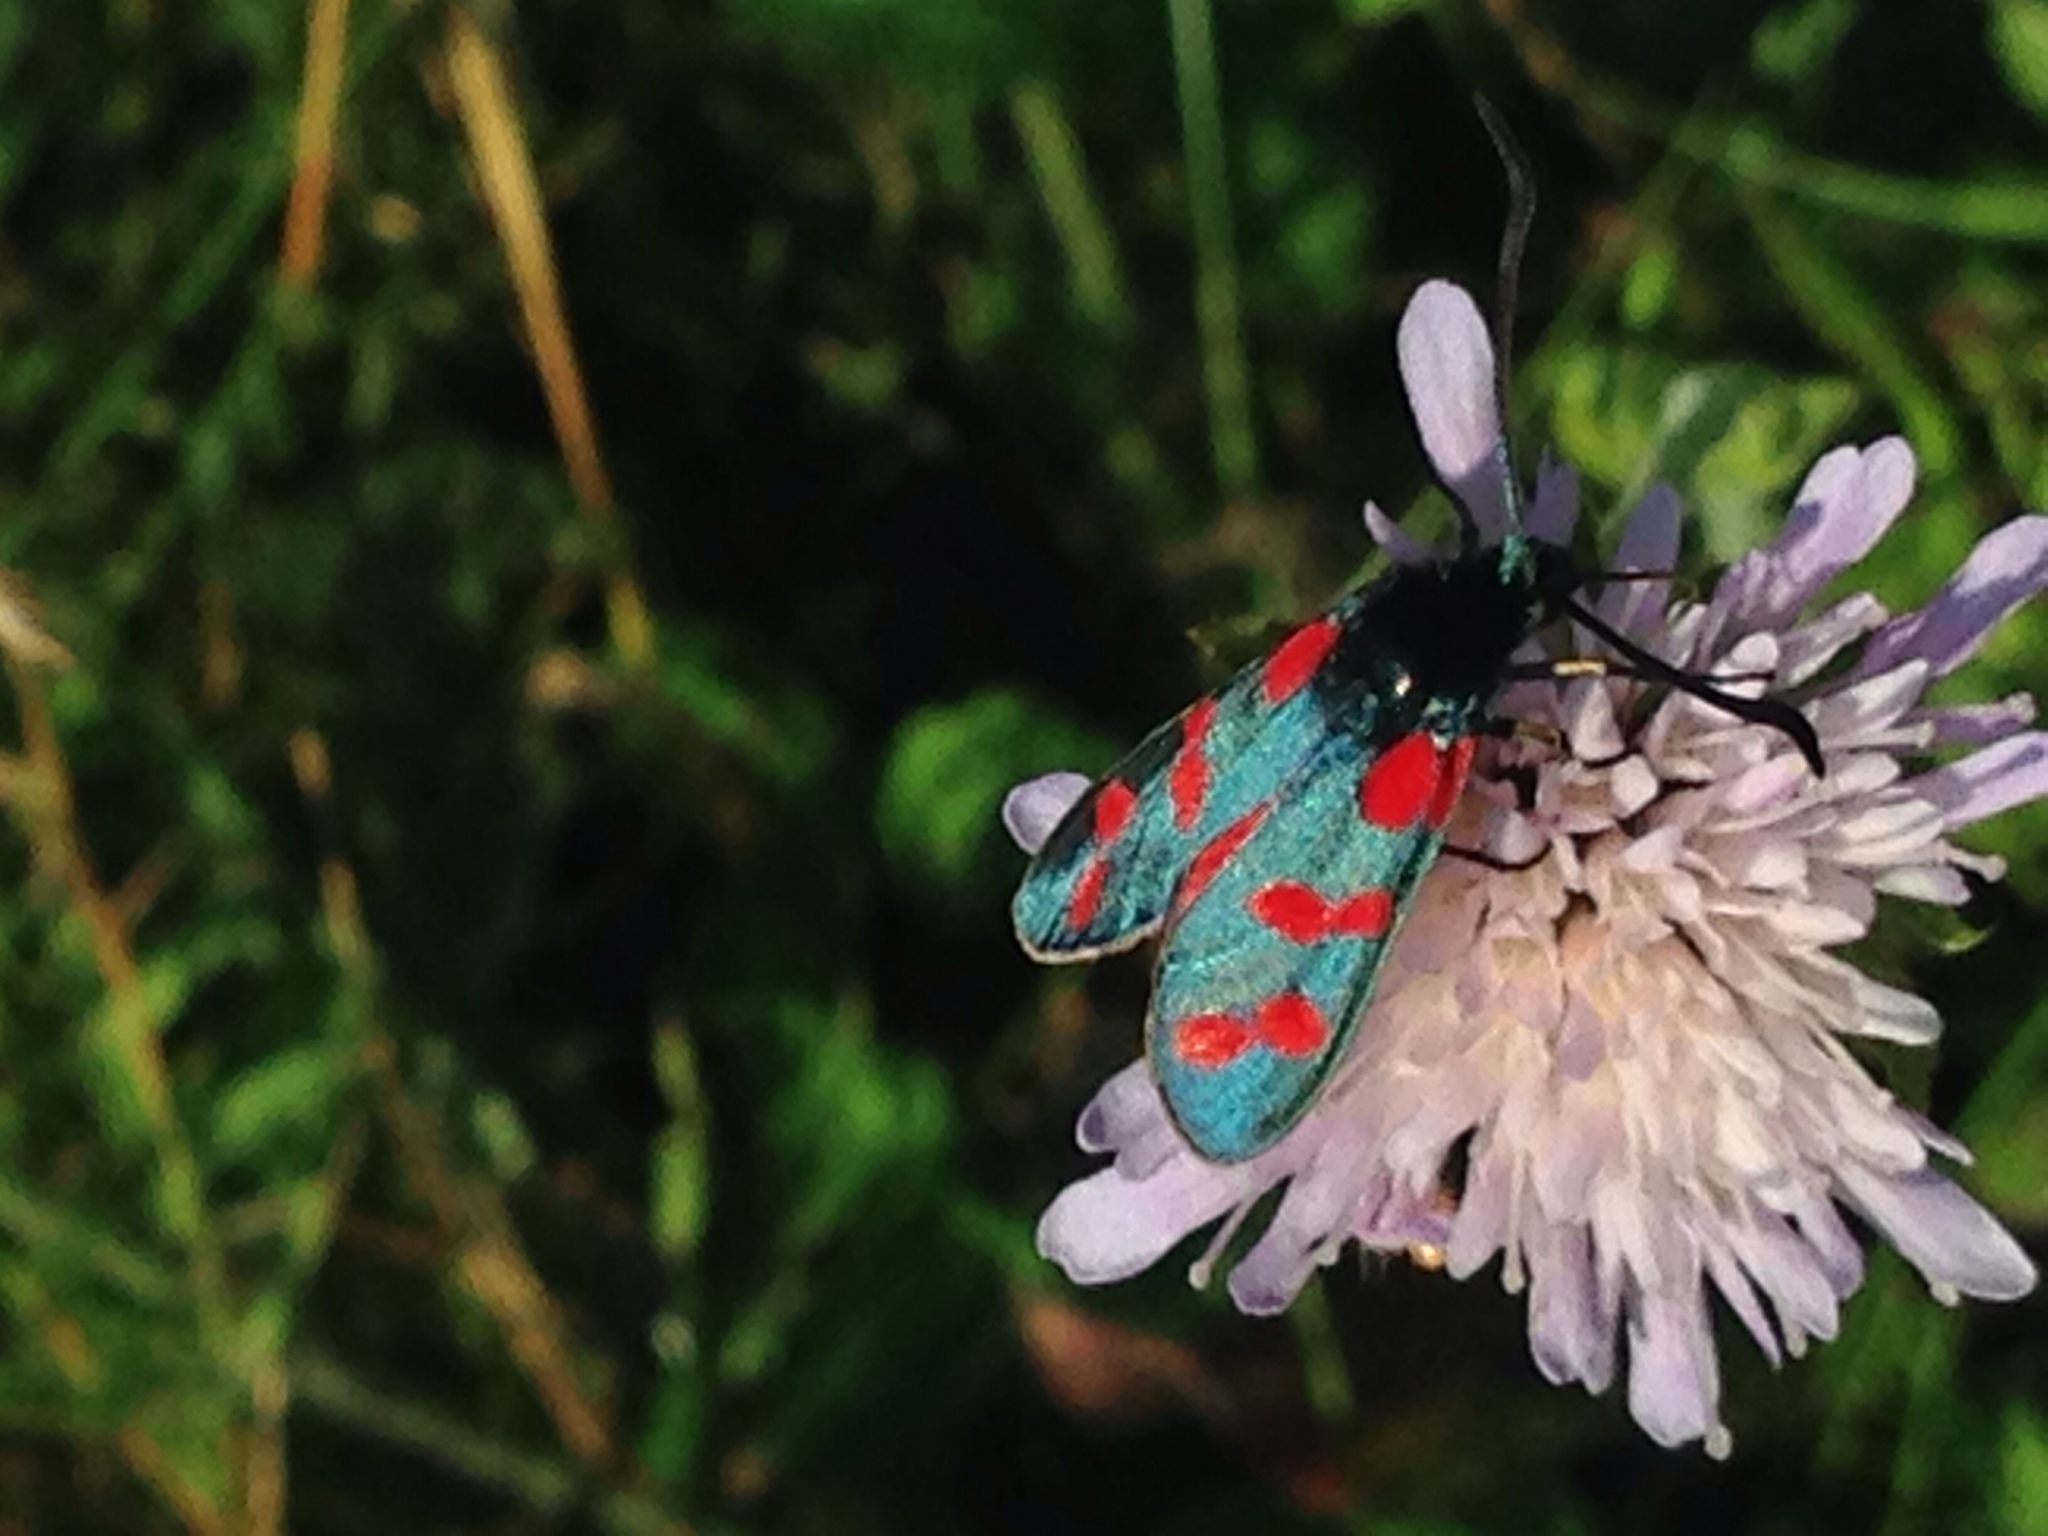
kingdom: Animalia
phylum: Arthropoda
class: Insecta
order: Lepidoptera
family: Zygaenidae
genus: Zygaena
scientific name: Zygaena filipendulae
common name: Six-spot burnet
